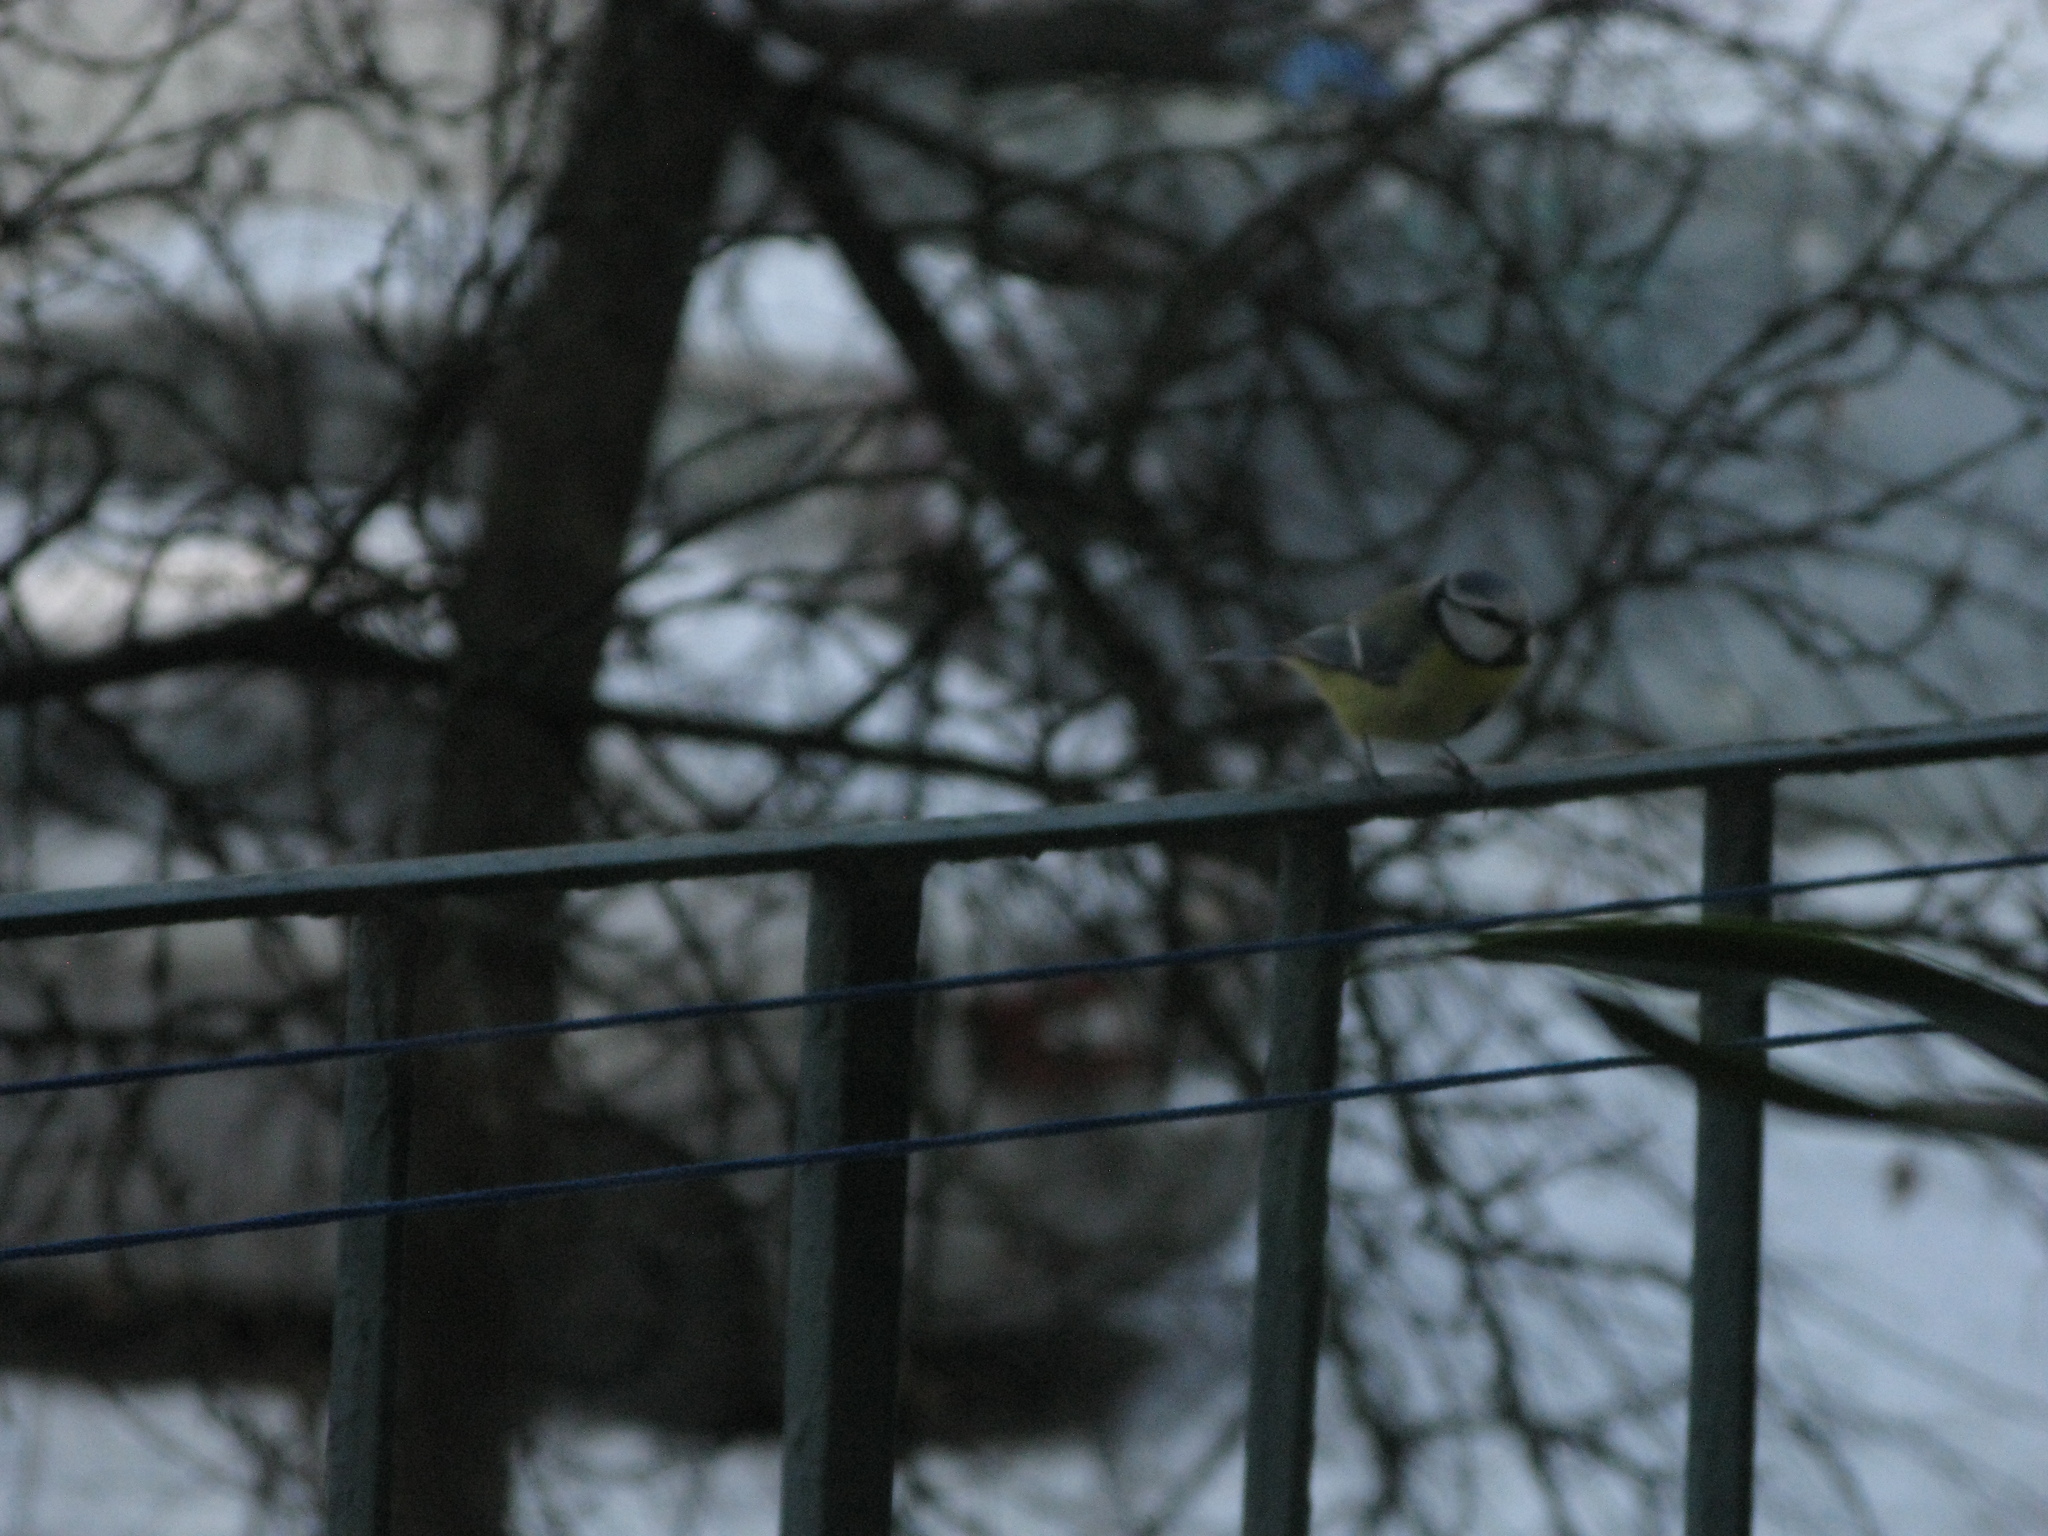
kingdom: Animalia
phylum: Chordata
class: Aves
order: Passeriformes
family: Paridae
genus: Cyanistes
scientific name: Cyanistes caeruleus
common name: Eurasian blue tit
